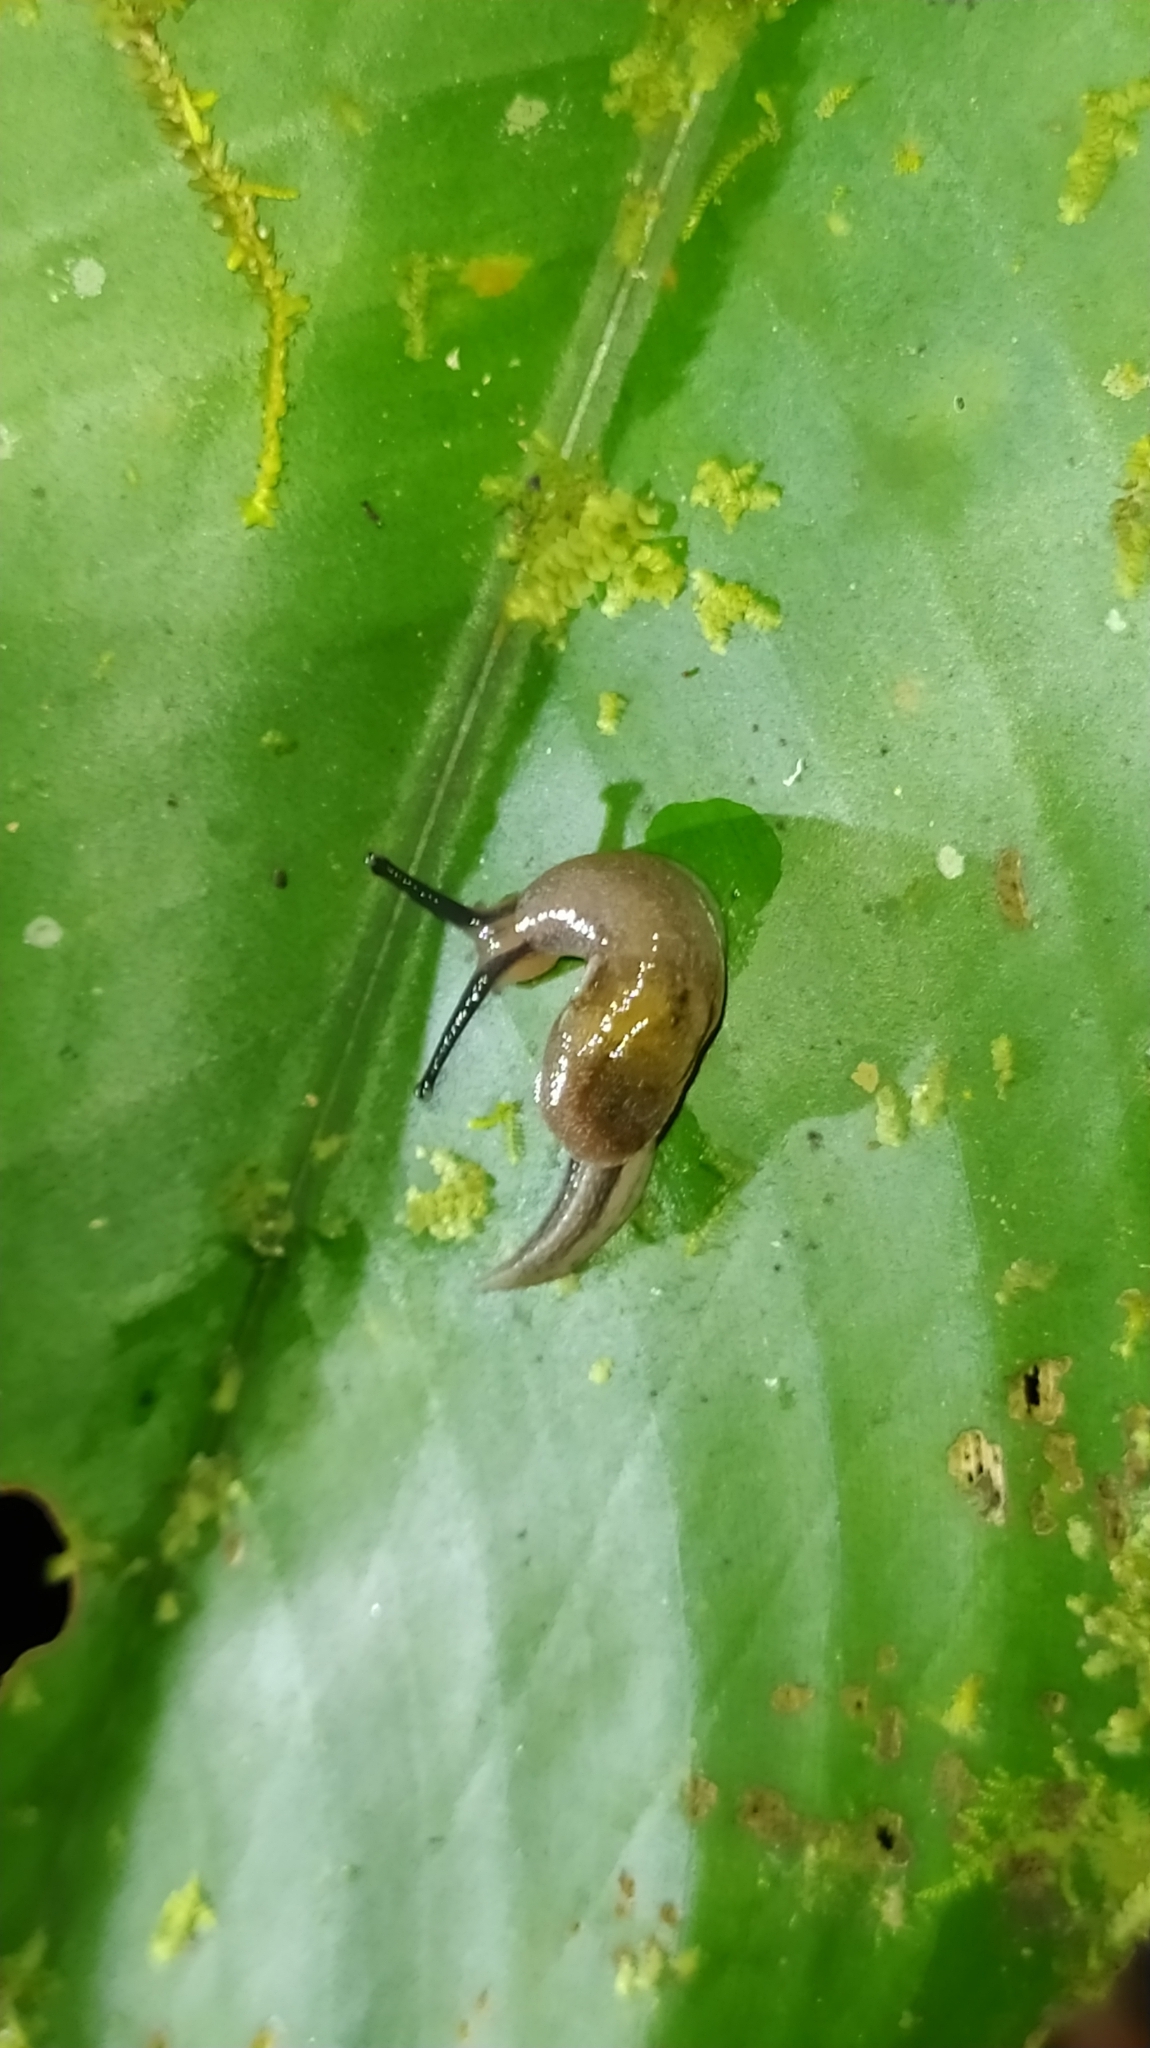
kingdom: Animalia
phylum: Mollusca
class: Gastropoda
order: Stylommatophora
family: Ariophantidae
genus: Parmarion
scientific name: Parmarion martensi
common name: Semi-slug
